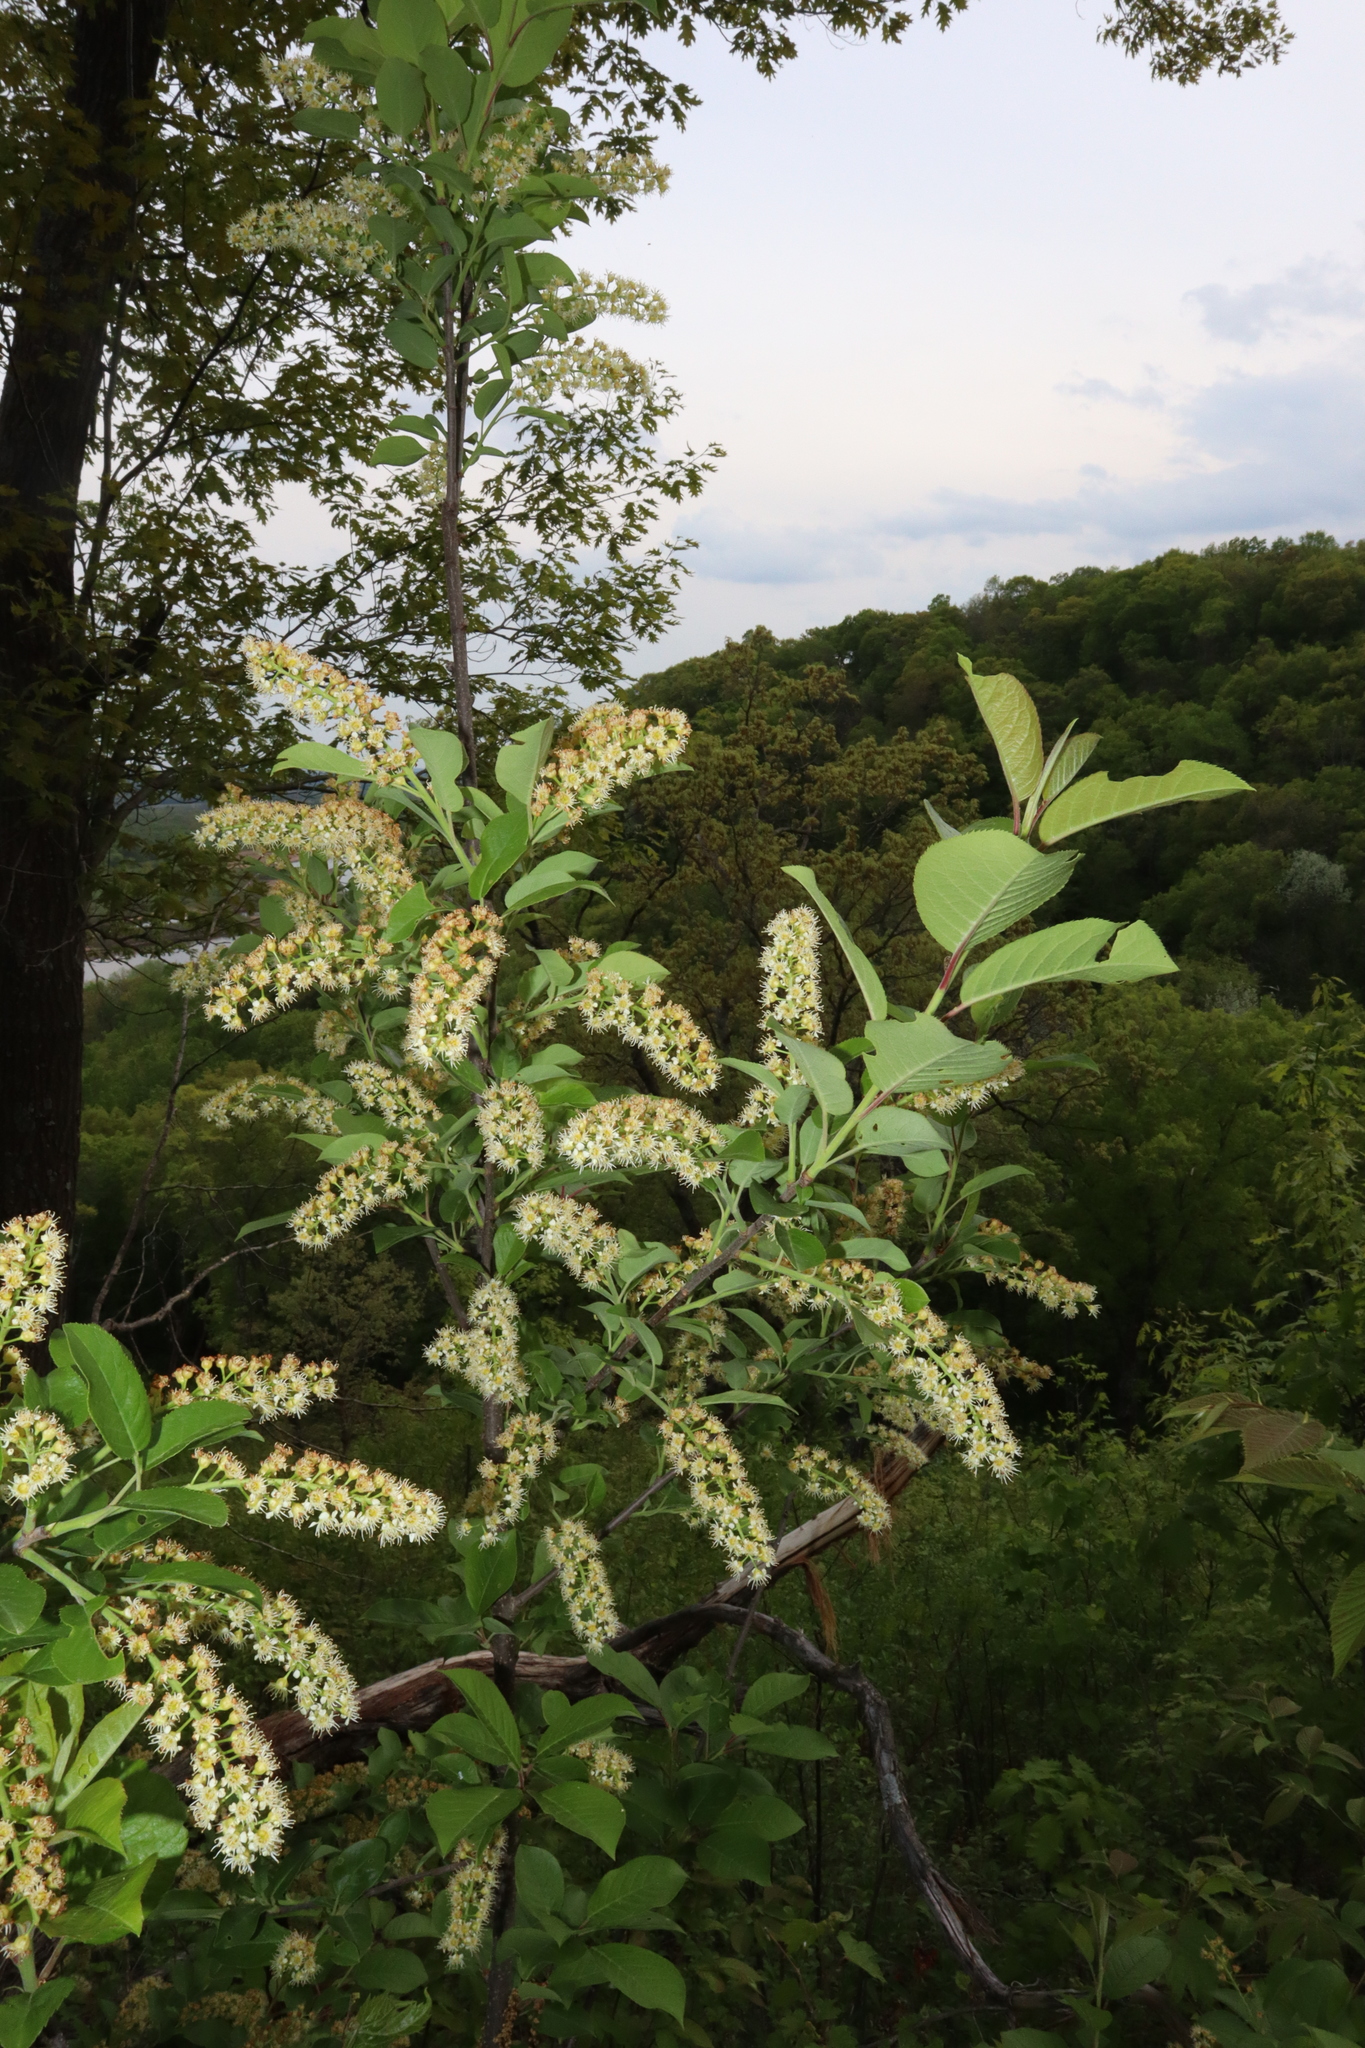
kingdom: Plantae
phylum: Tracheophyta
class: Magnoliopsida
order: Rosales
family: Rosaceae
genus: Prunus
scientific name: Prunus serotina
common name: Black cherry
